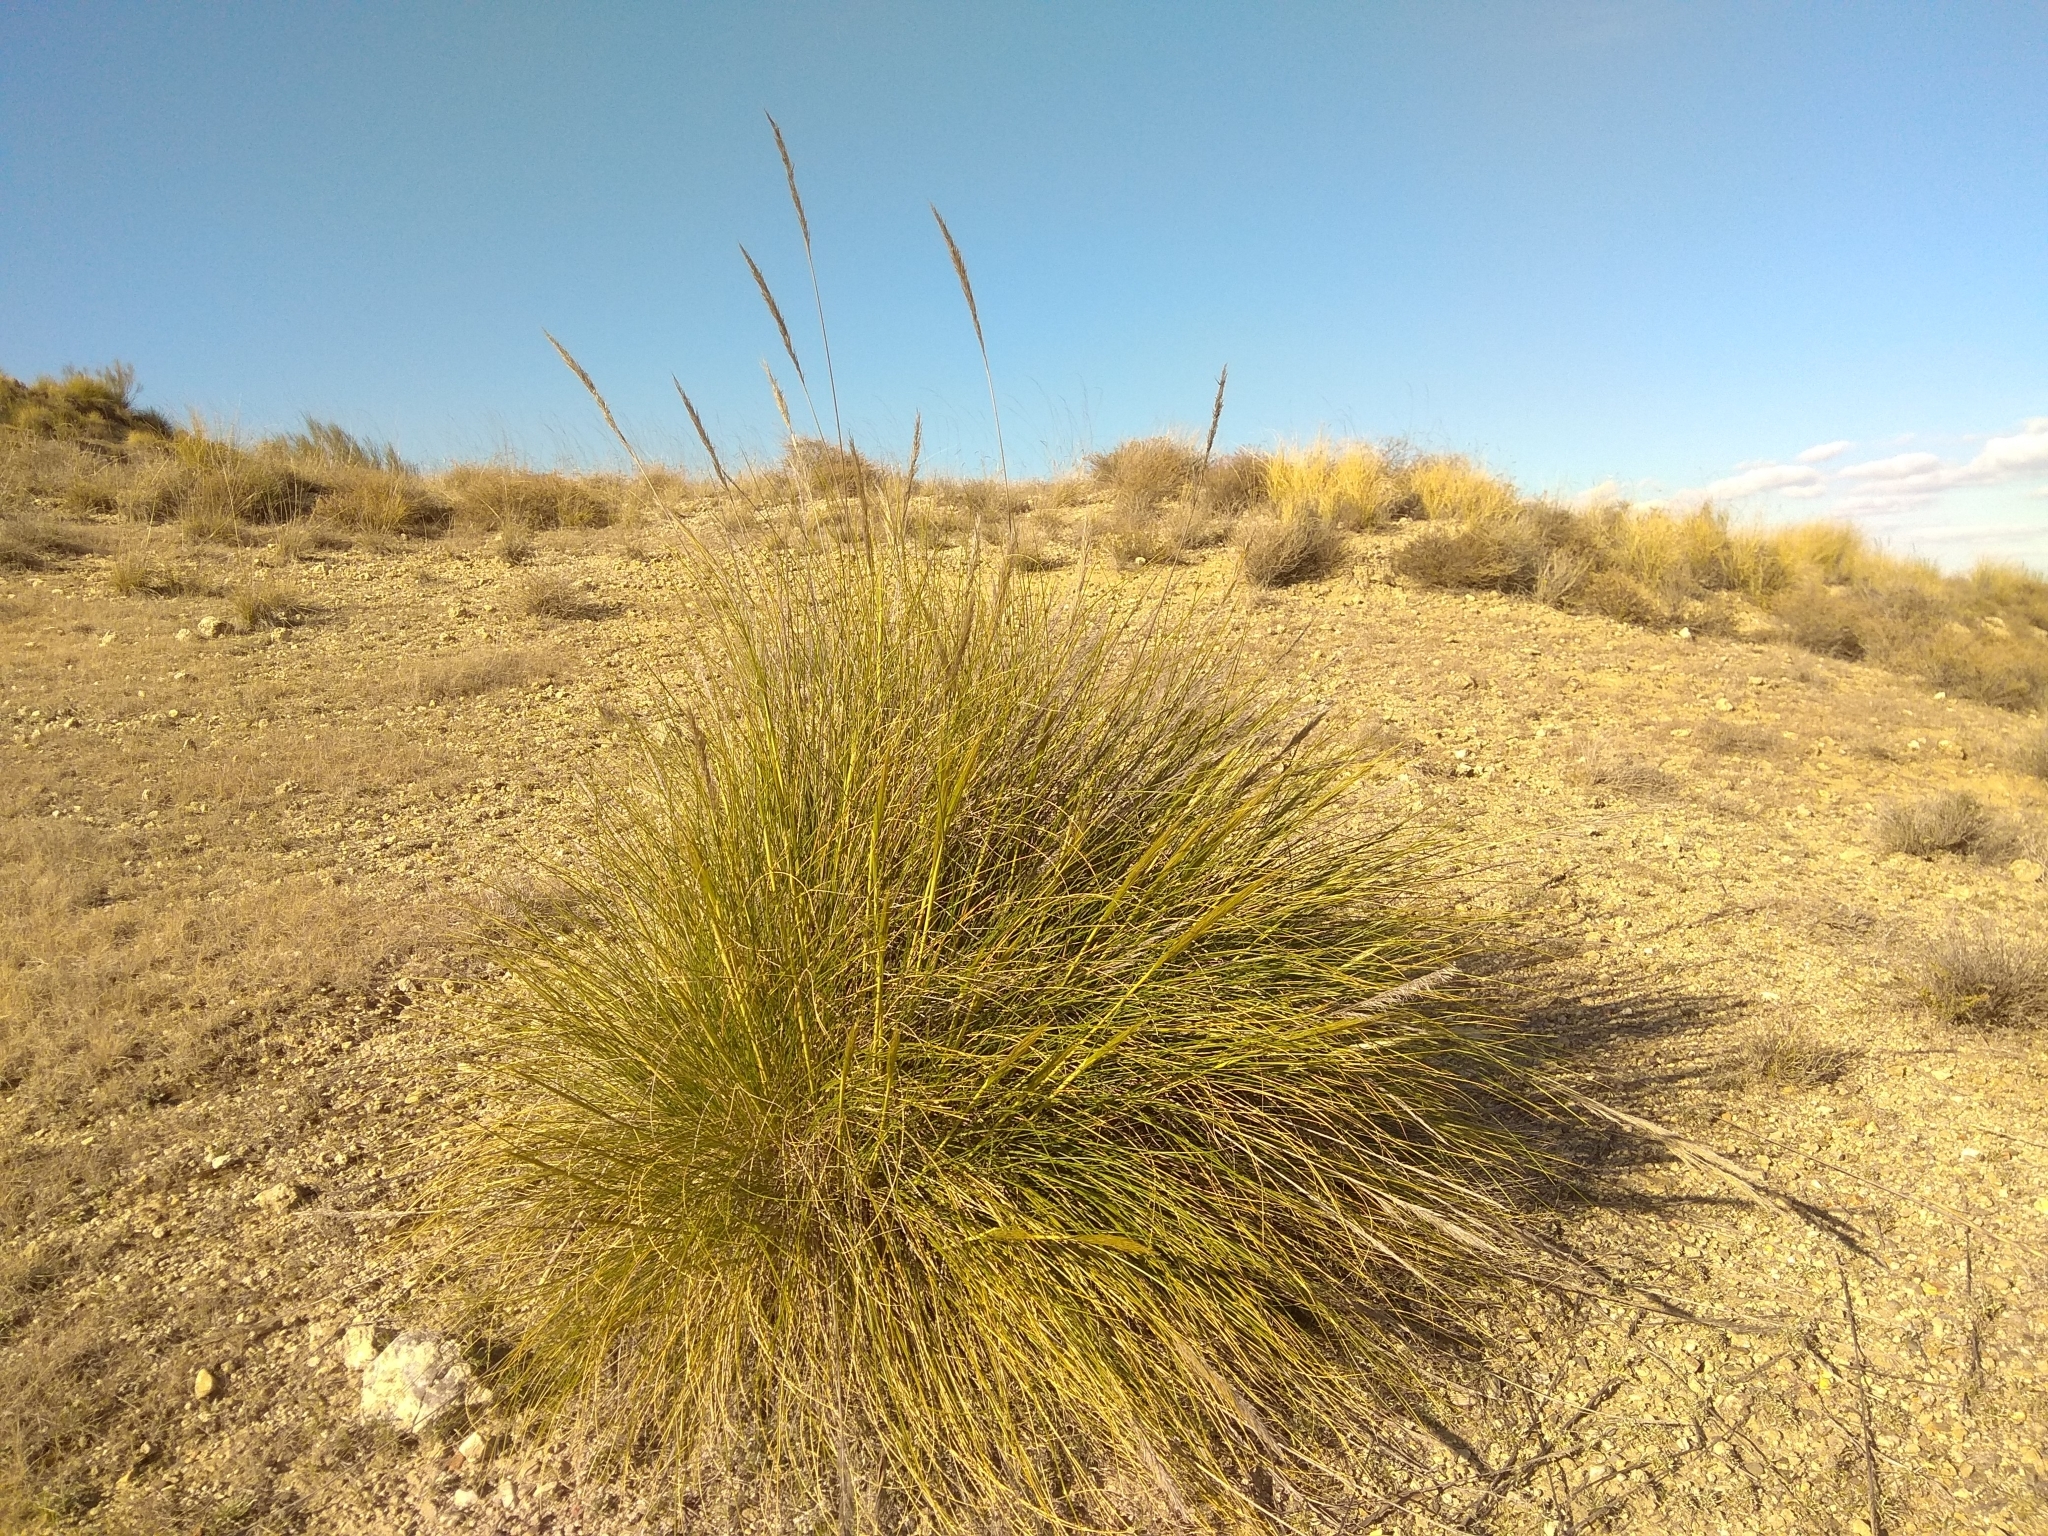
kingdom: Plantae
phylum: Tracheophyta
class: Liliopsida
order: Poales
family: Poaceae
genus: Macrochloa
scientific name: Macrochloa tenacissima
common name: Alfa grass
